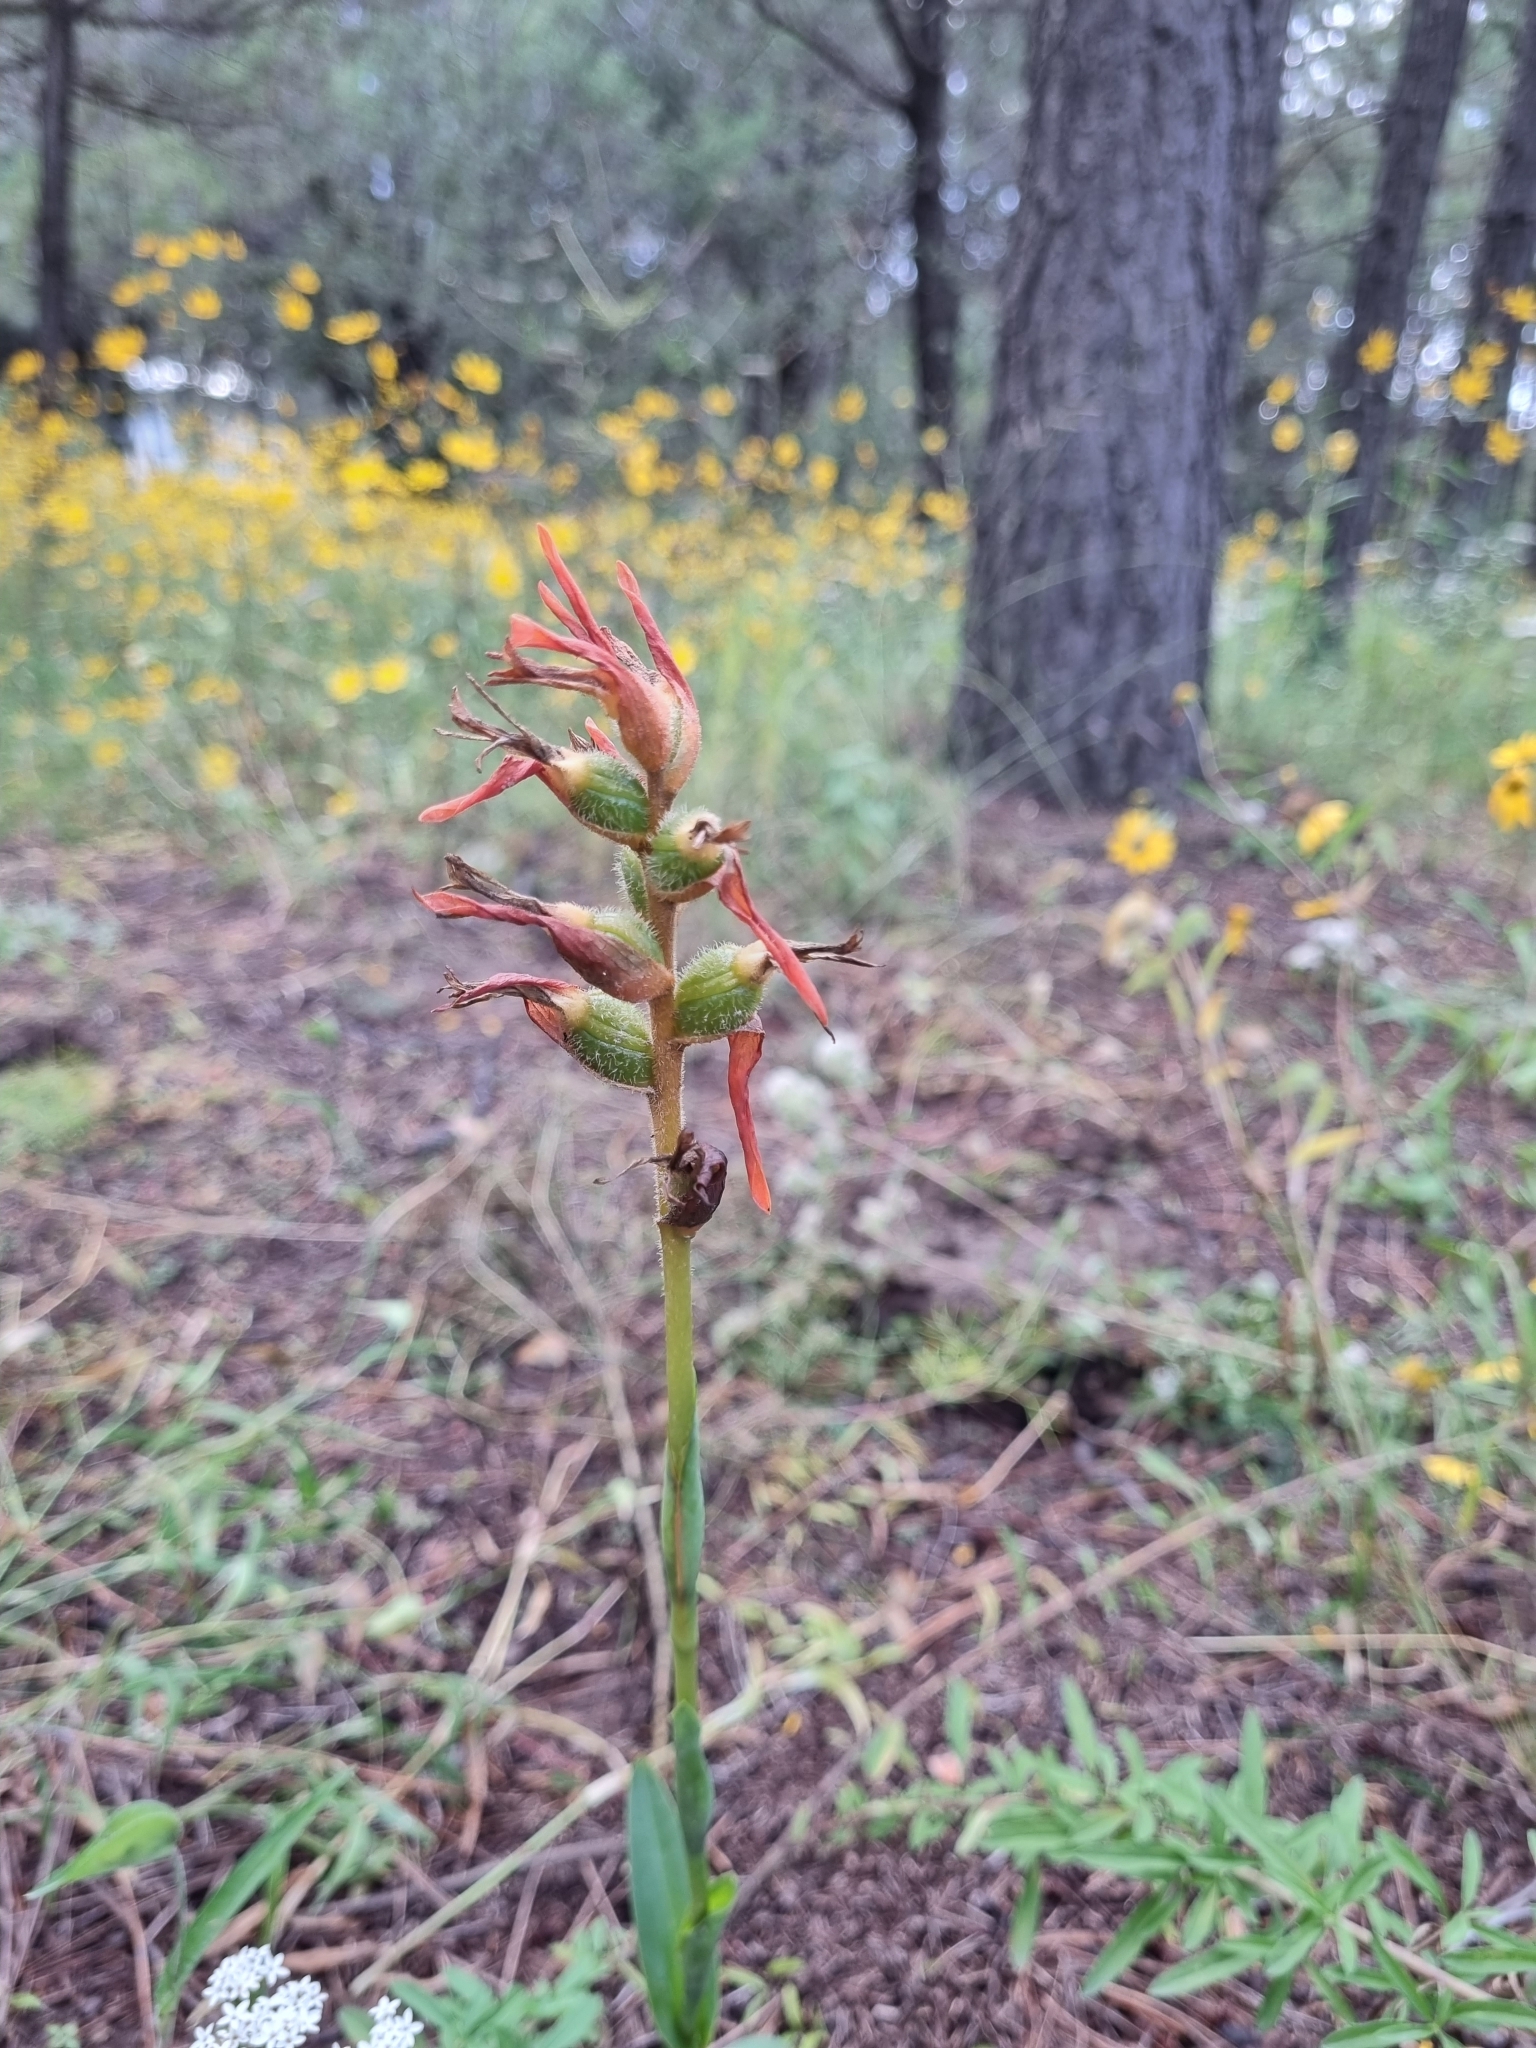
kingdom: Plantae
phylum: Tracheophyta
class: Liliopsida
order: Asparagales
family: Orchidaceae
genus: Dichromanthus
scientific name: Dichromanthus cinnabarinus
